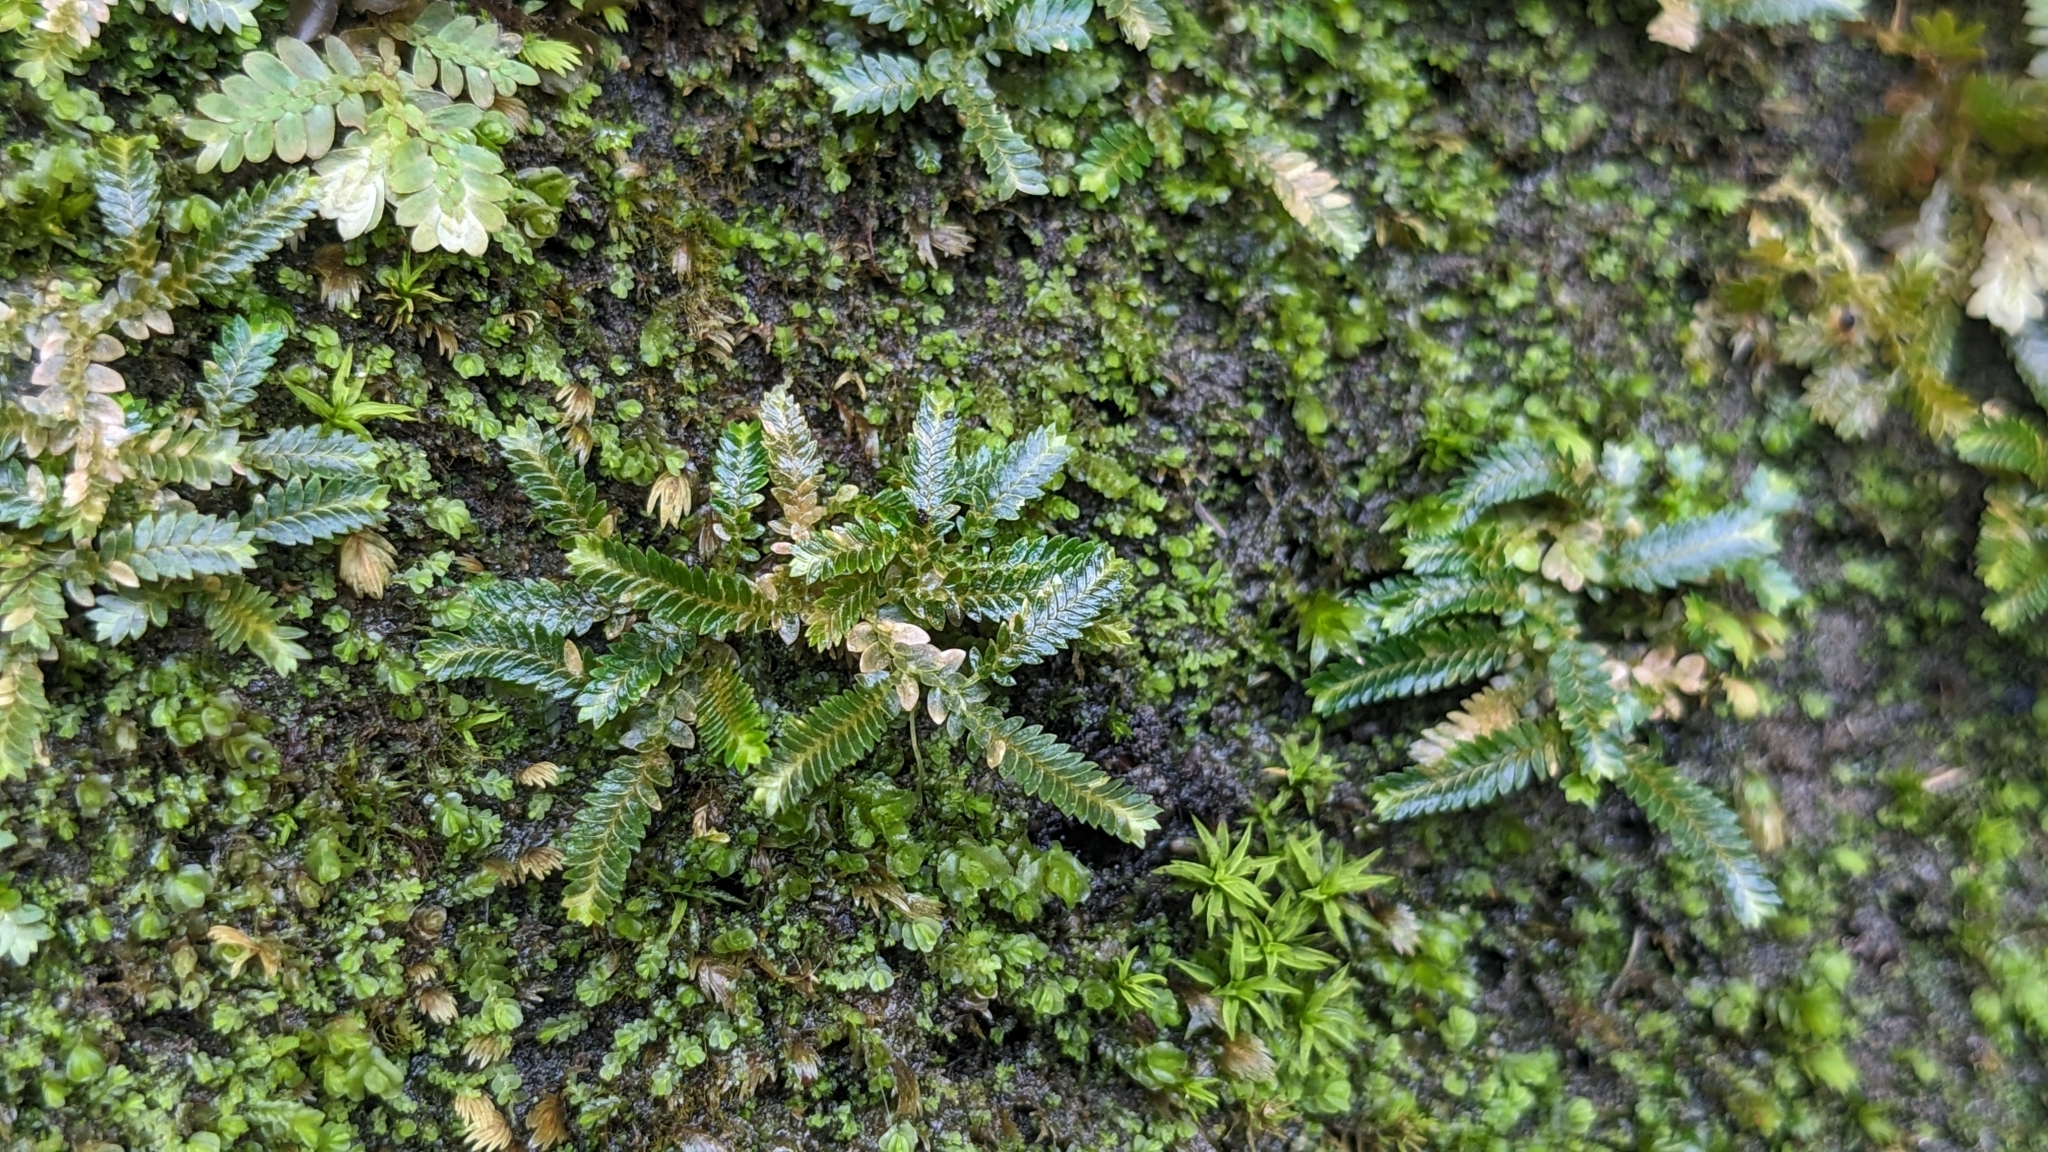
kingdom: Plantae
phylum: Tracheophyta
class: Lycopodiopsida
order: Selaginellales
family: Selaginellaceae
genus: Selaginella
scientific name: Selaginella devolii
